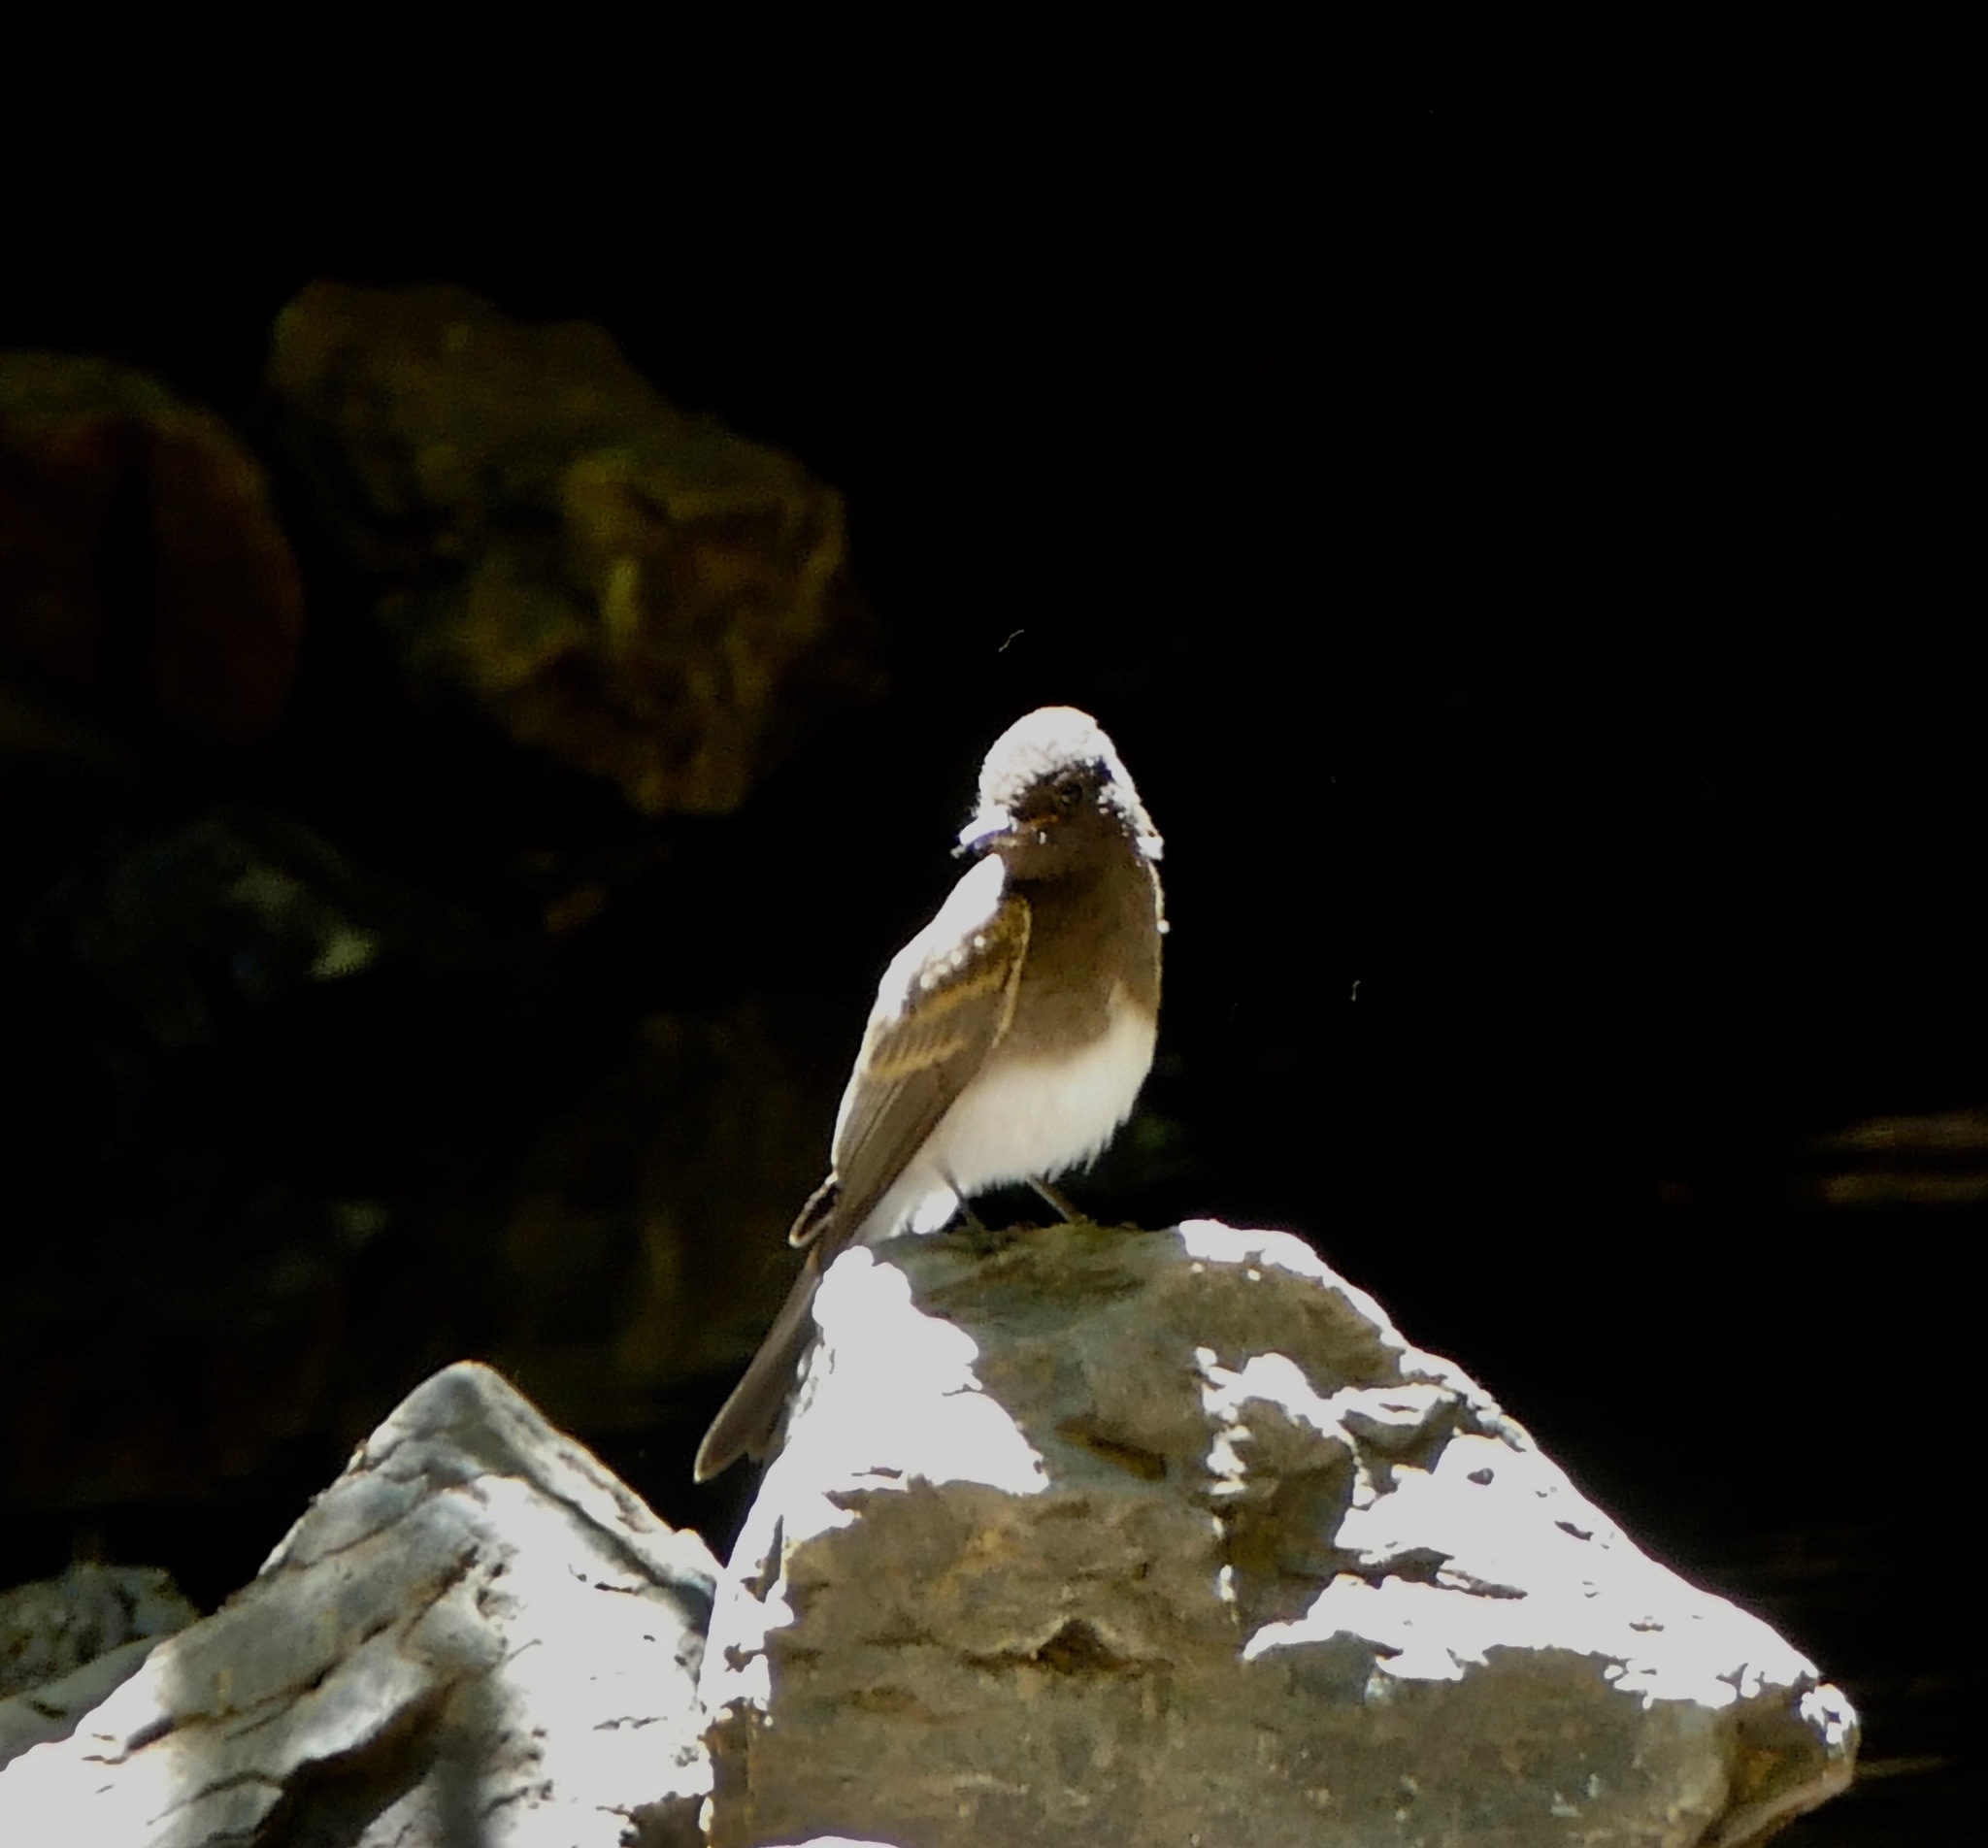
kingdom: Animalia
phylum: Chordata
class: Aves
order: Passeriformes
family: Tyrannidae
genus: Sayornis
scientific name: Sayornis nigricans
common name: Black phoebe
